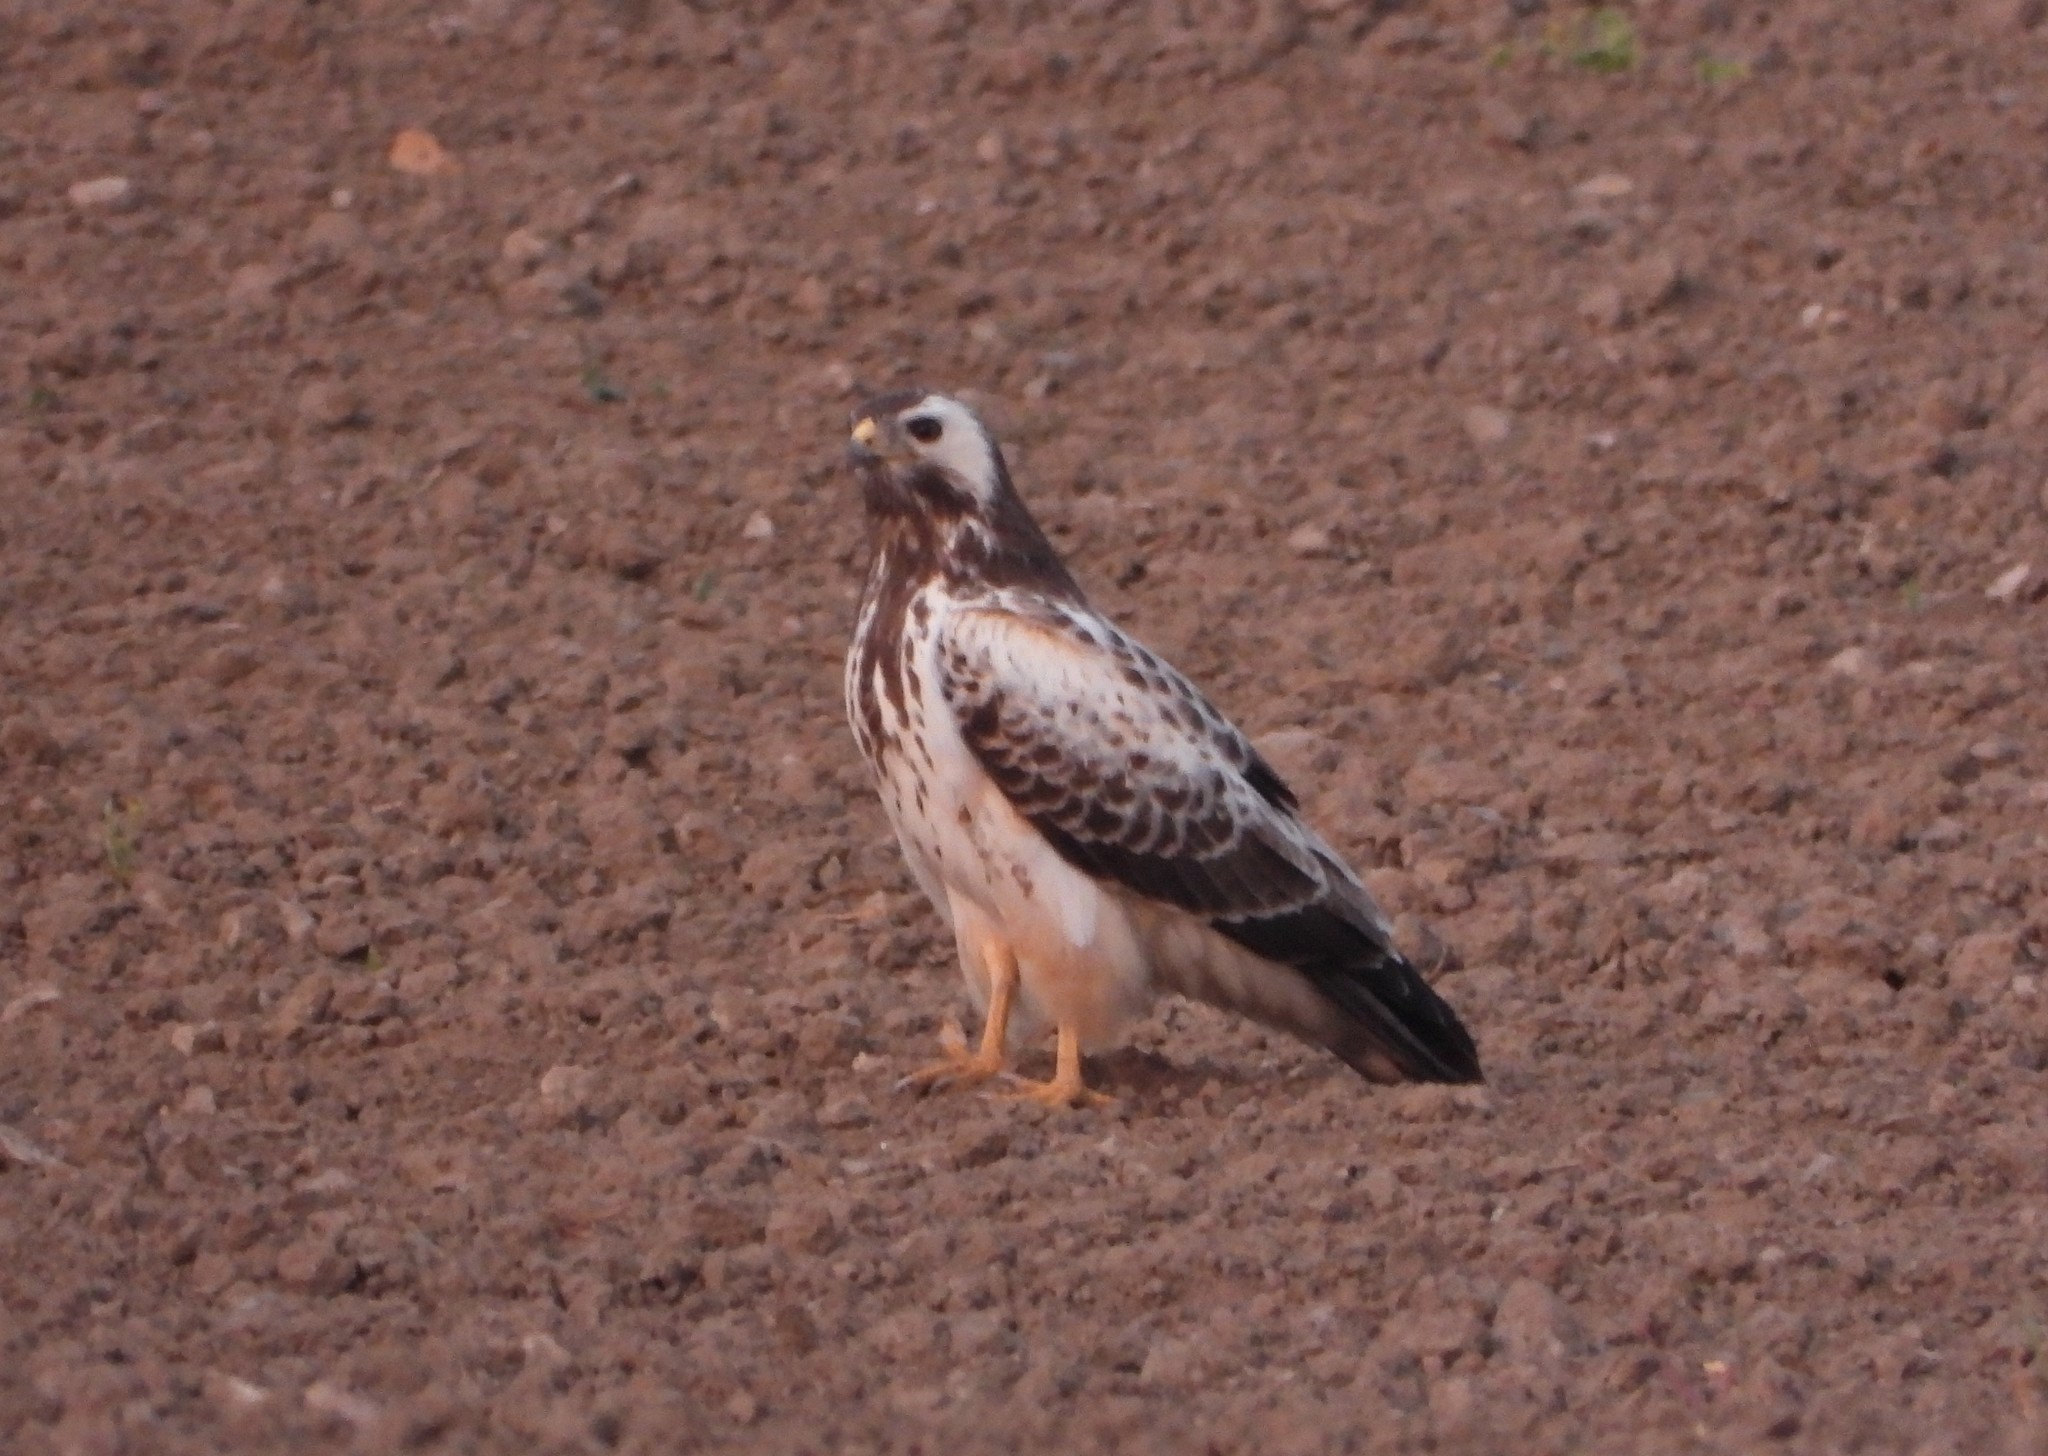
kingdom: Animalia
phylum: Chordata
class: Aves
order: Accipitriformes
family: Accipitridae
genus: Buteo
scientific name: Buteo buteo
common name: Common buzzard
